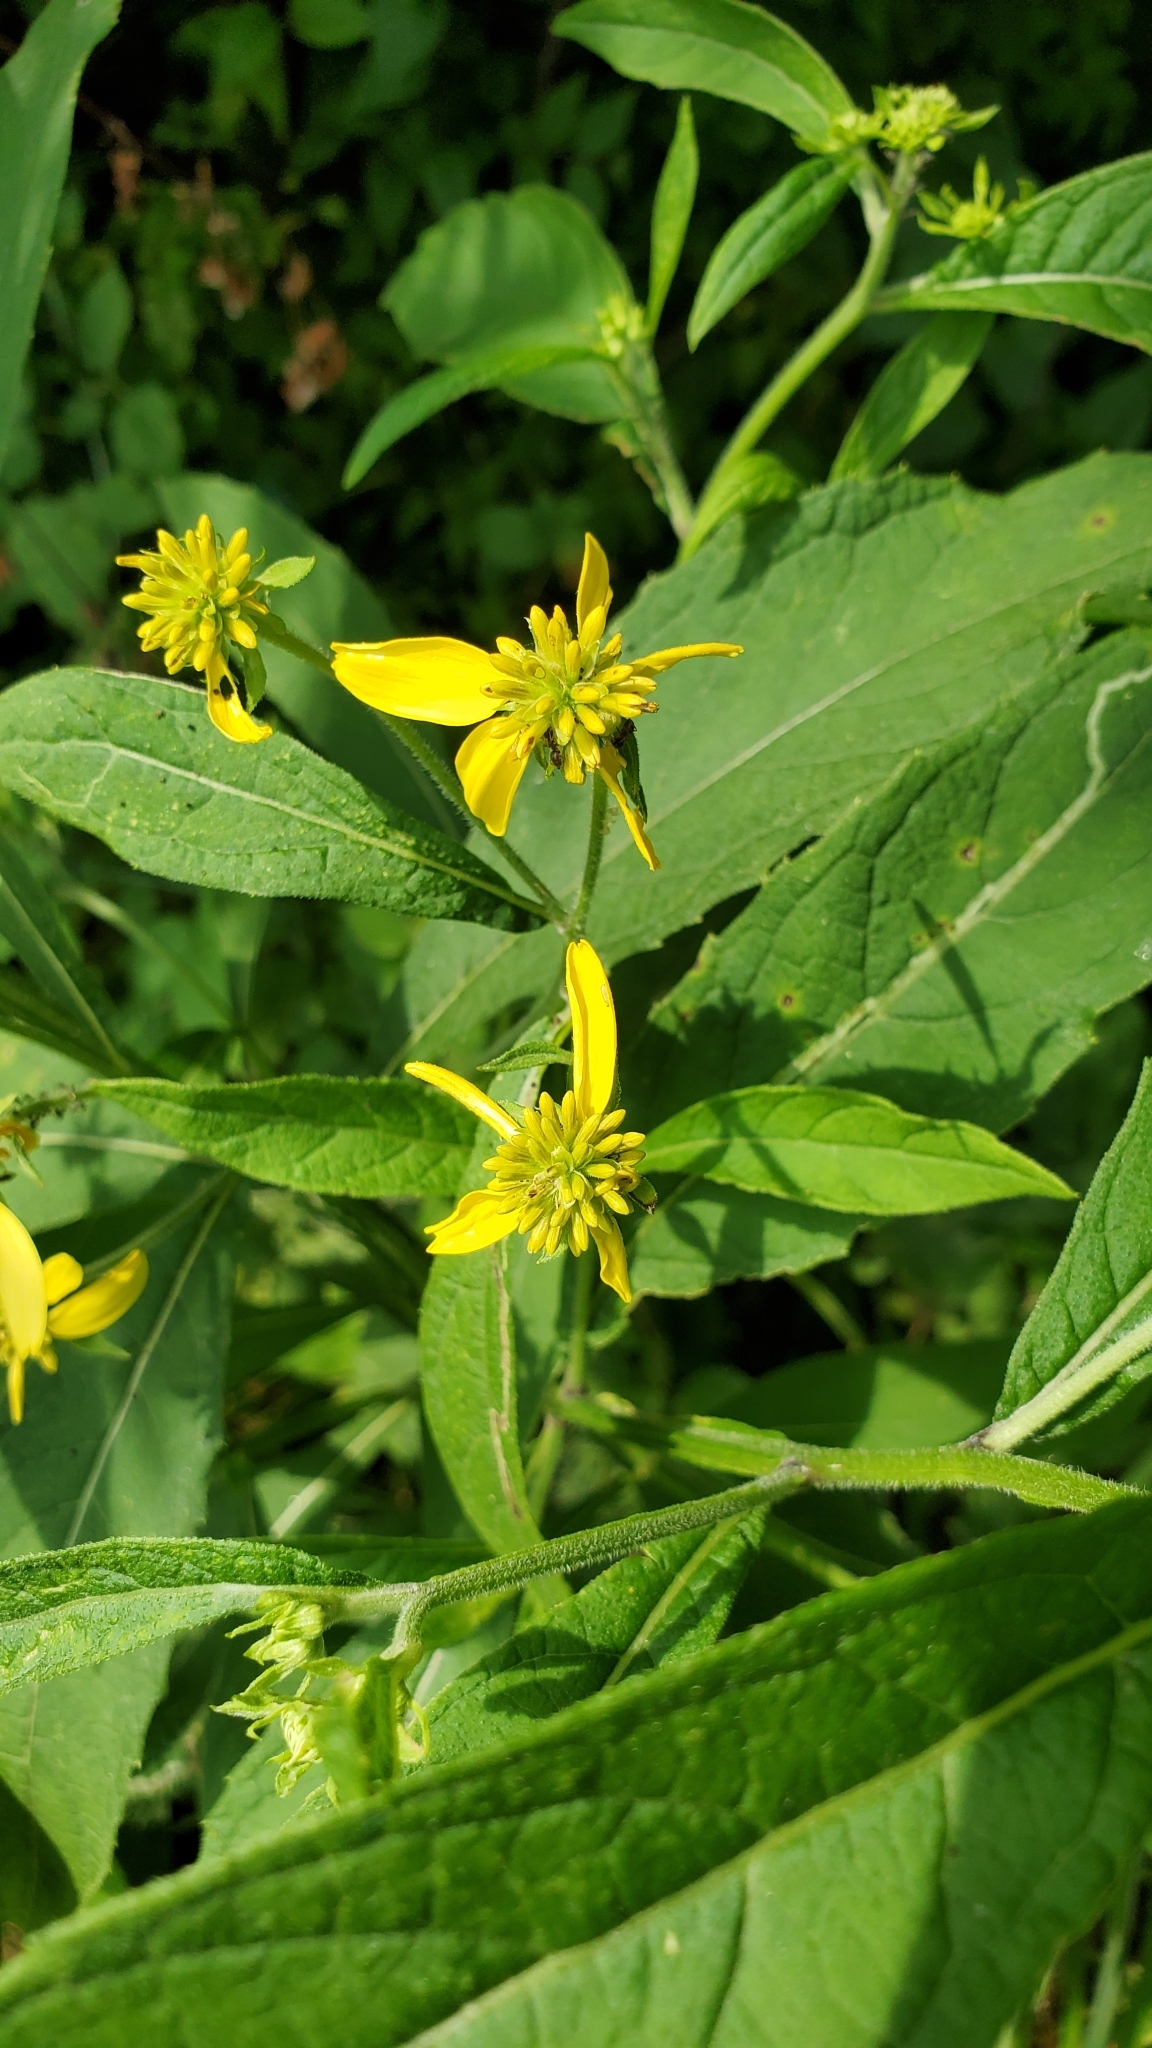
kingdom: Plantae
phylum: Tracheophyta
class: Magnoliopsida
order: Asterales
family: Asteraceae
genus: Verbesina
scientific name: Verbesina alternifolia
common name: Wingstem
